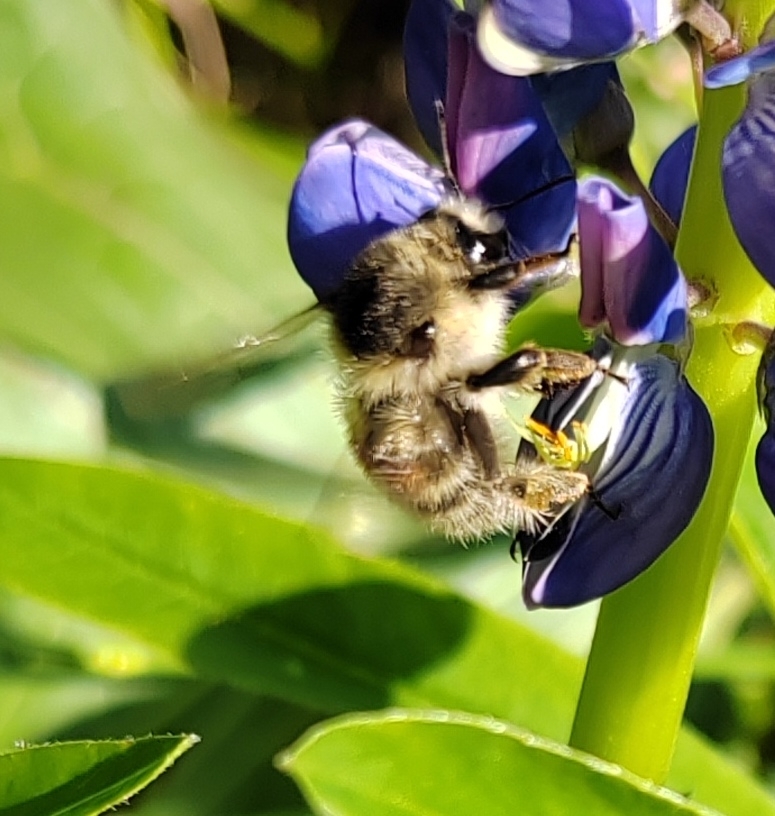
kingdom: Animalia
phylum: Arthropoda
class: Insecta
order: Hymenoptera
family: Apidae
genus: Bombus
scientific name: Bombus deuteronymus
